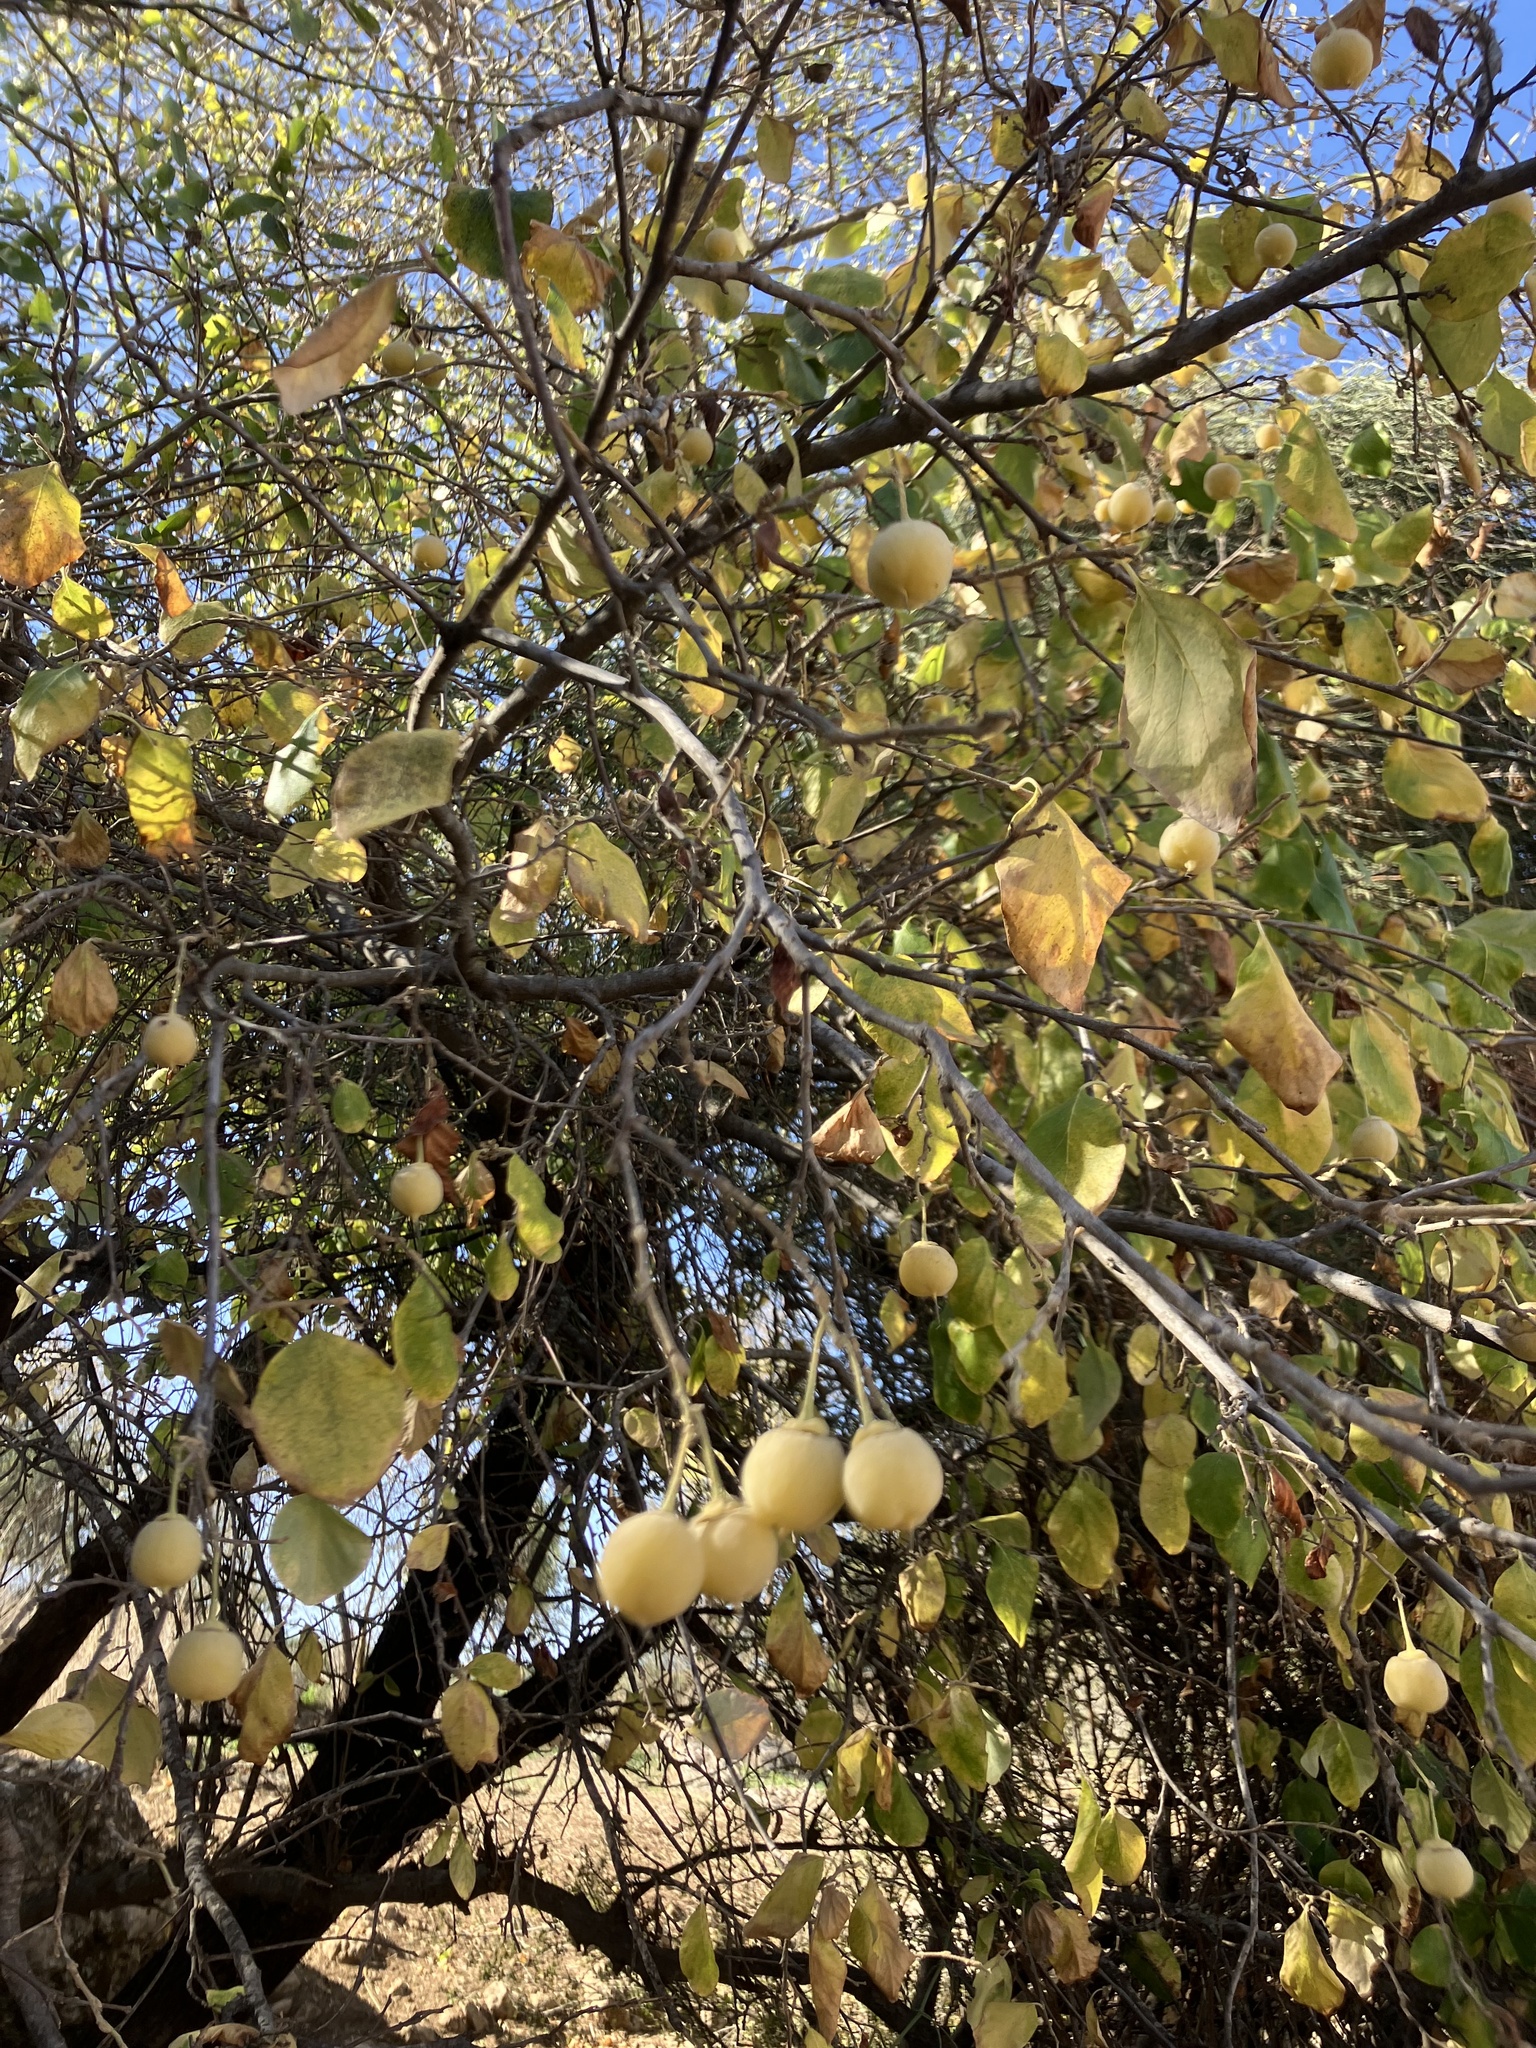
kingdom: Plantae
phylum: Tracheophyta
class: Magnoliopsida
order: Ericales
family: Styracaceae
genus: Styrax
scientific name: Styrax officinalis
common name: Storax
